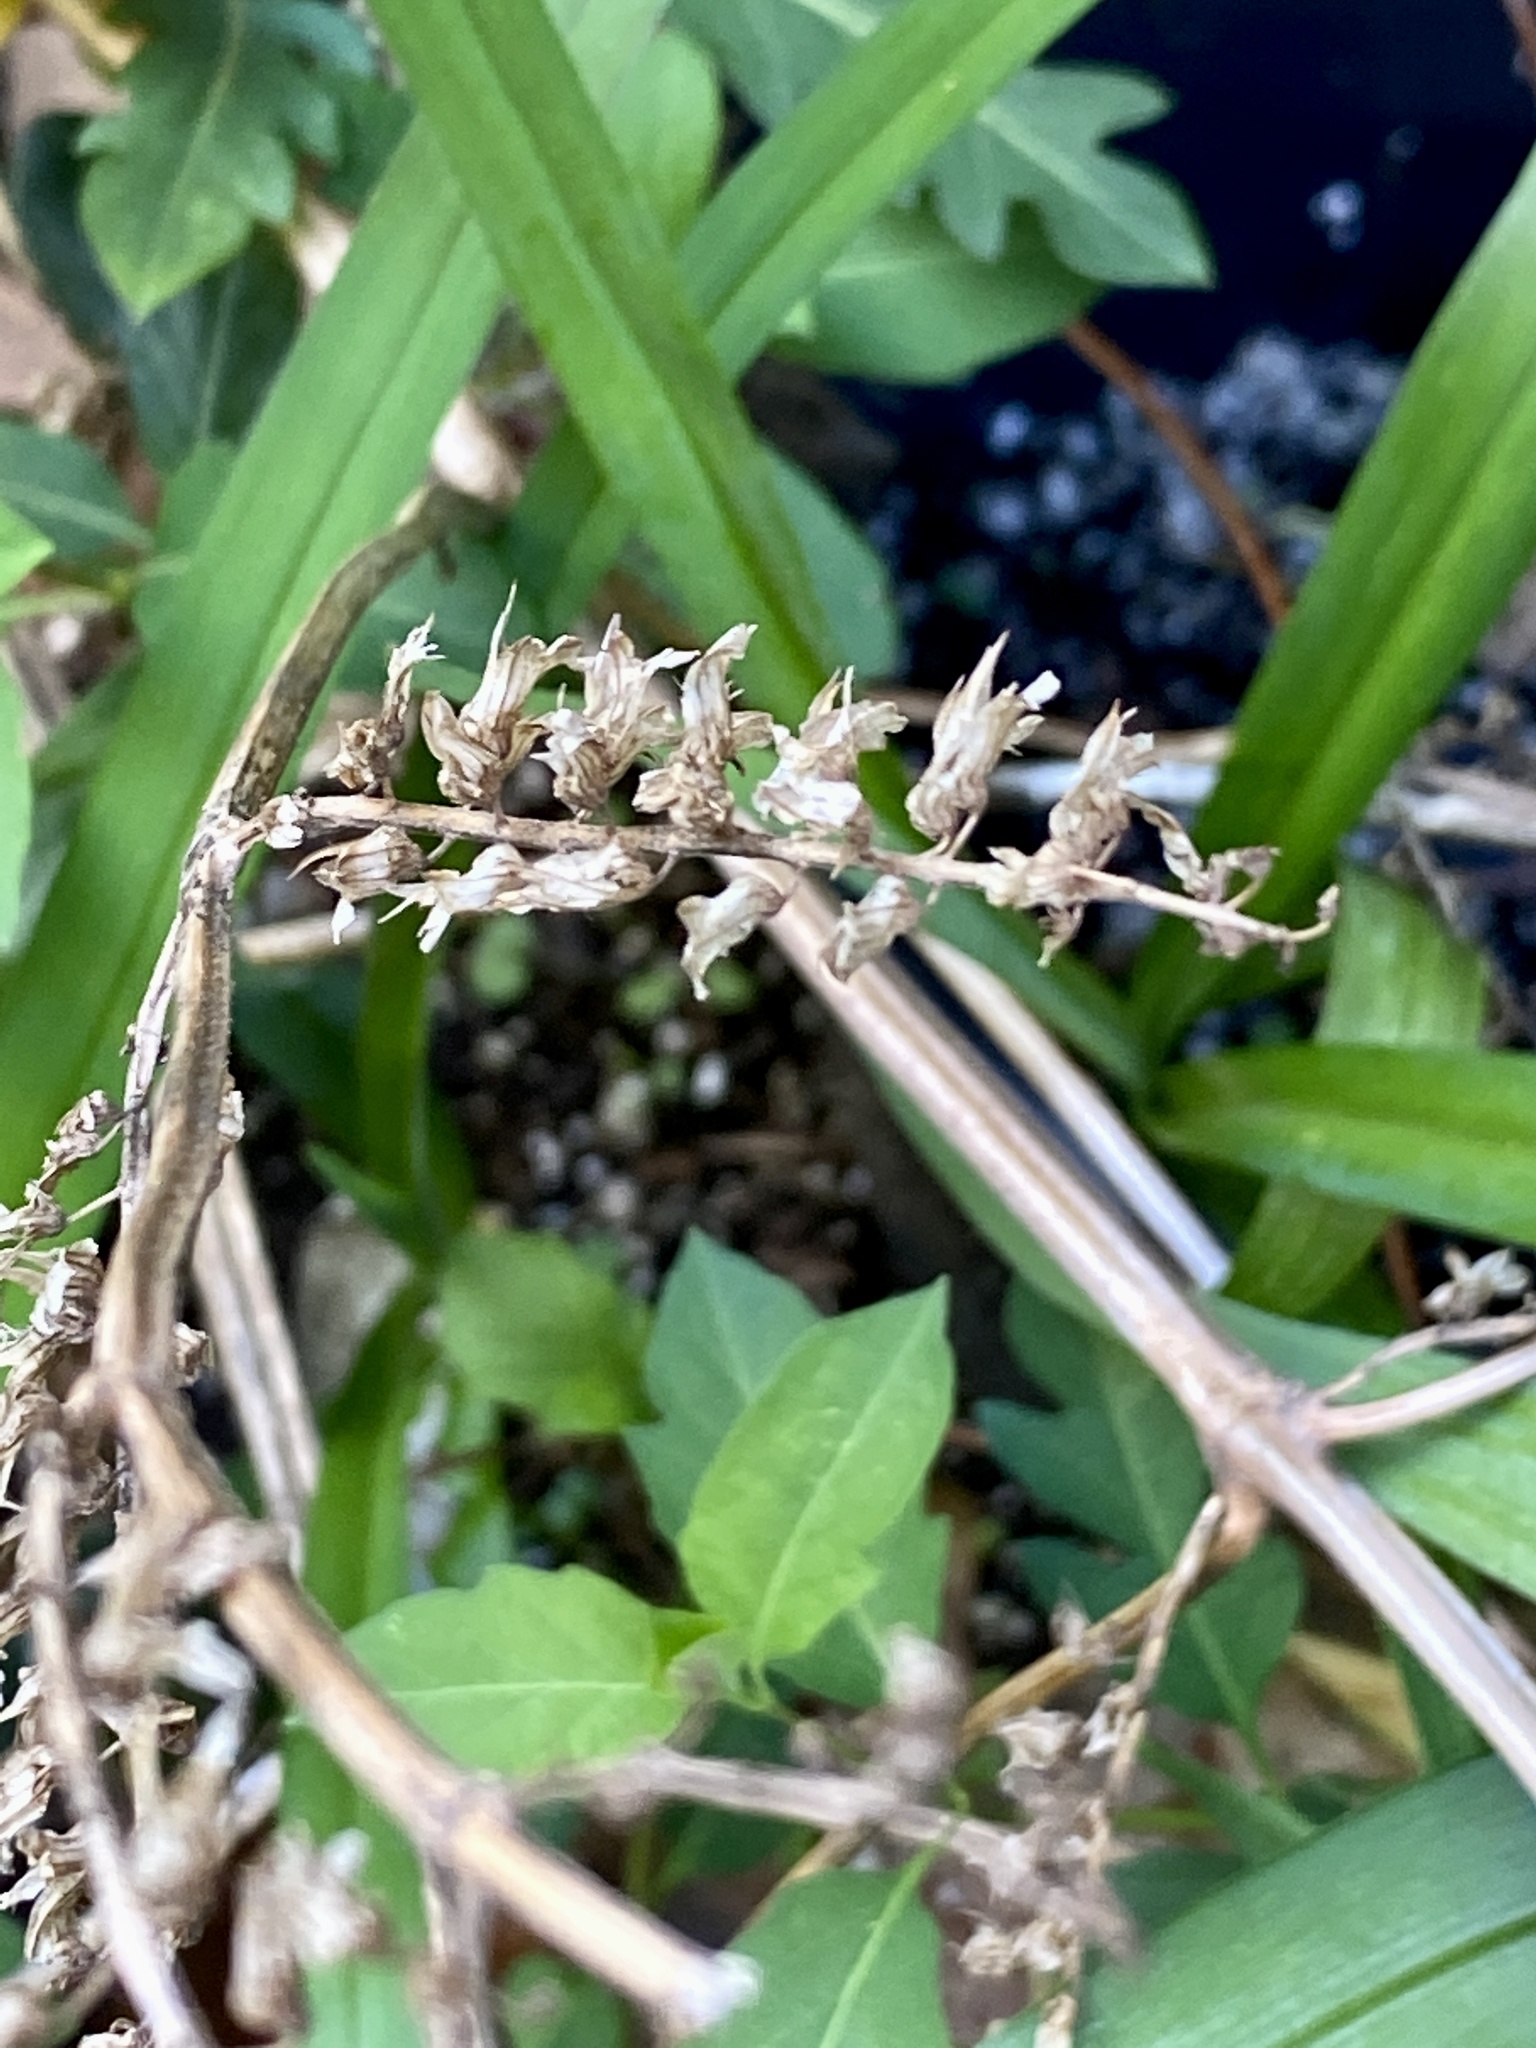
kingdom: Plantae
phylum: Tracheophyta
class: Magnoliopsida
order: Lamiales
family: Lamiaceae
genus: Perilla
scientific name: Perilla frutescens
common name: Perilla
